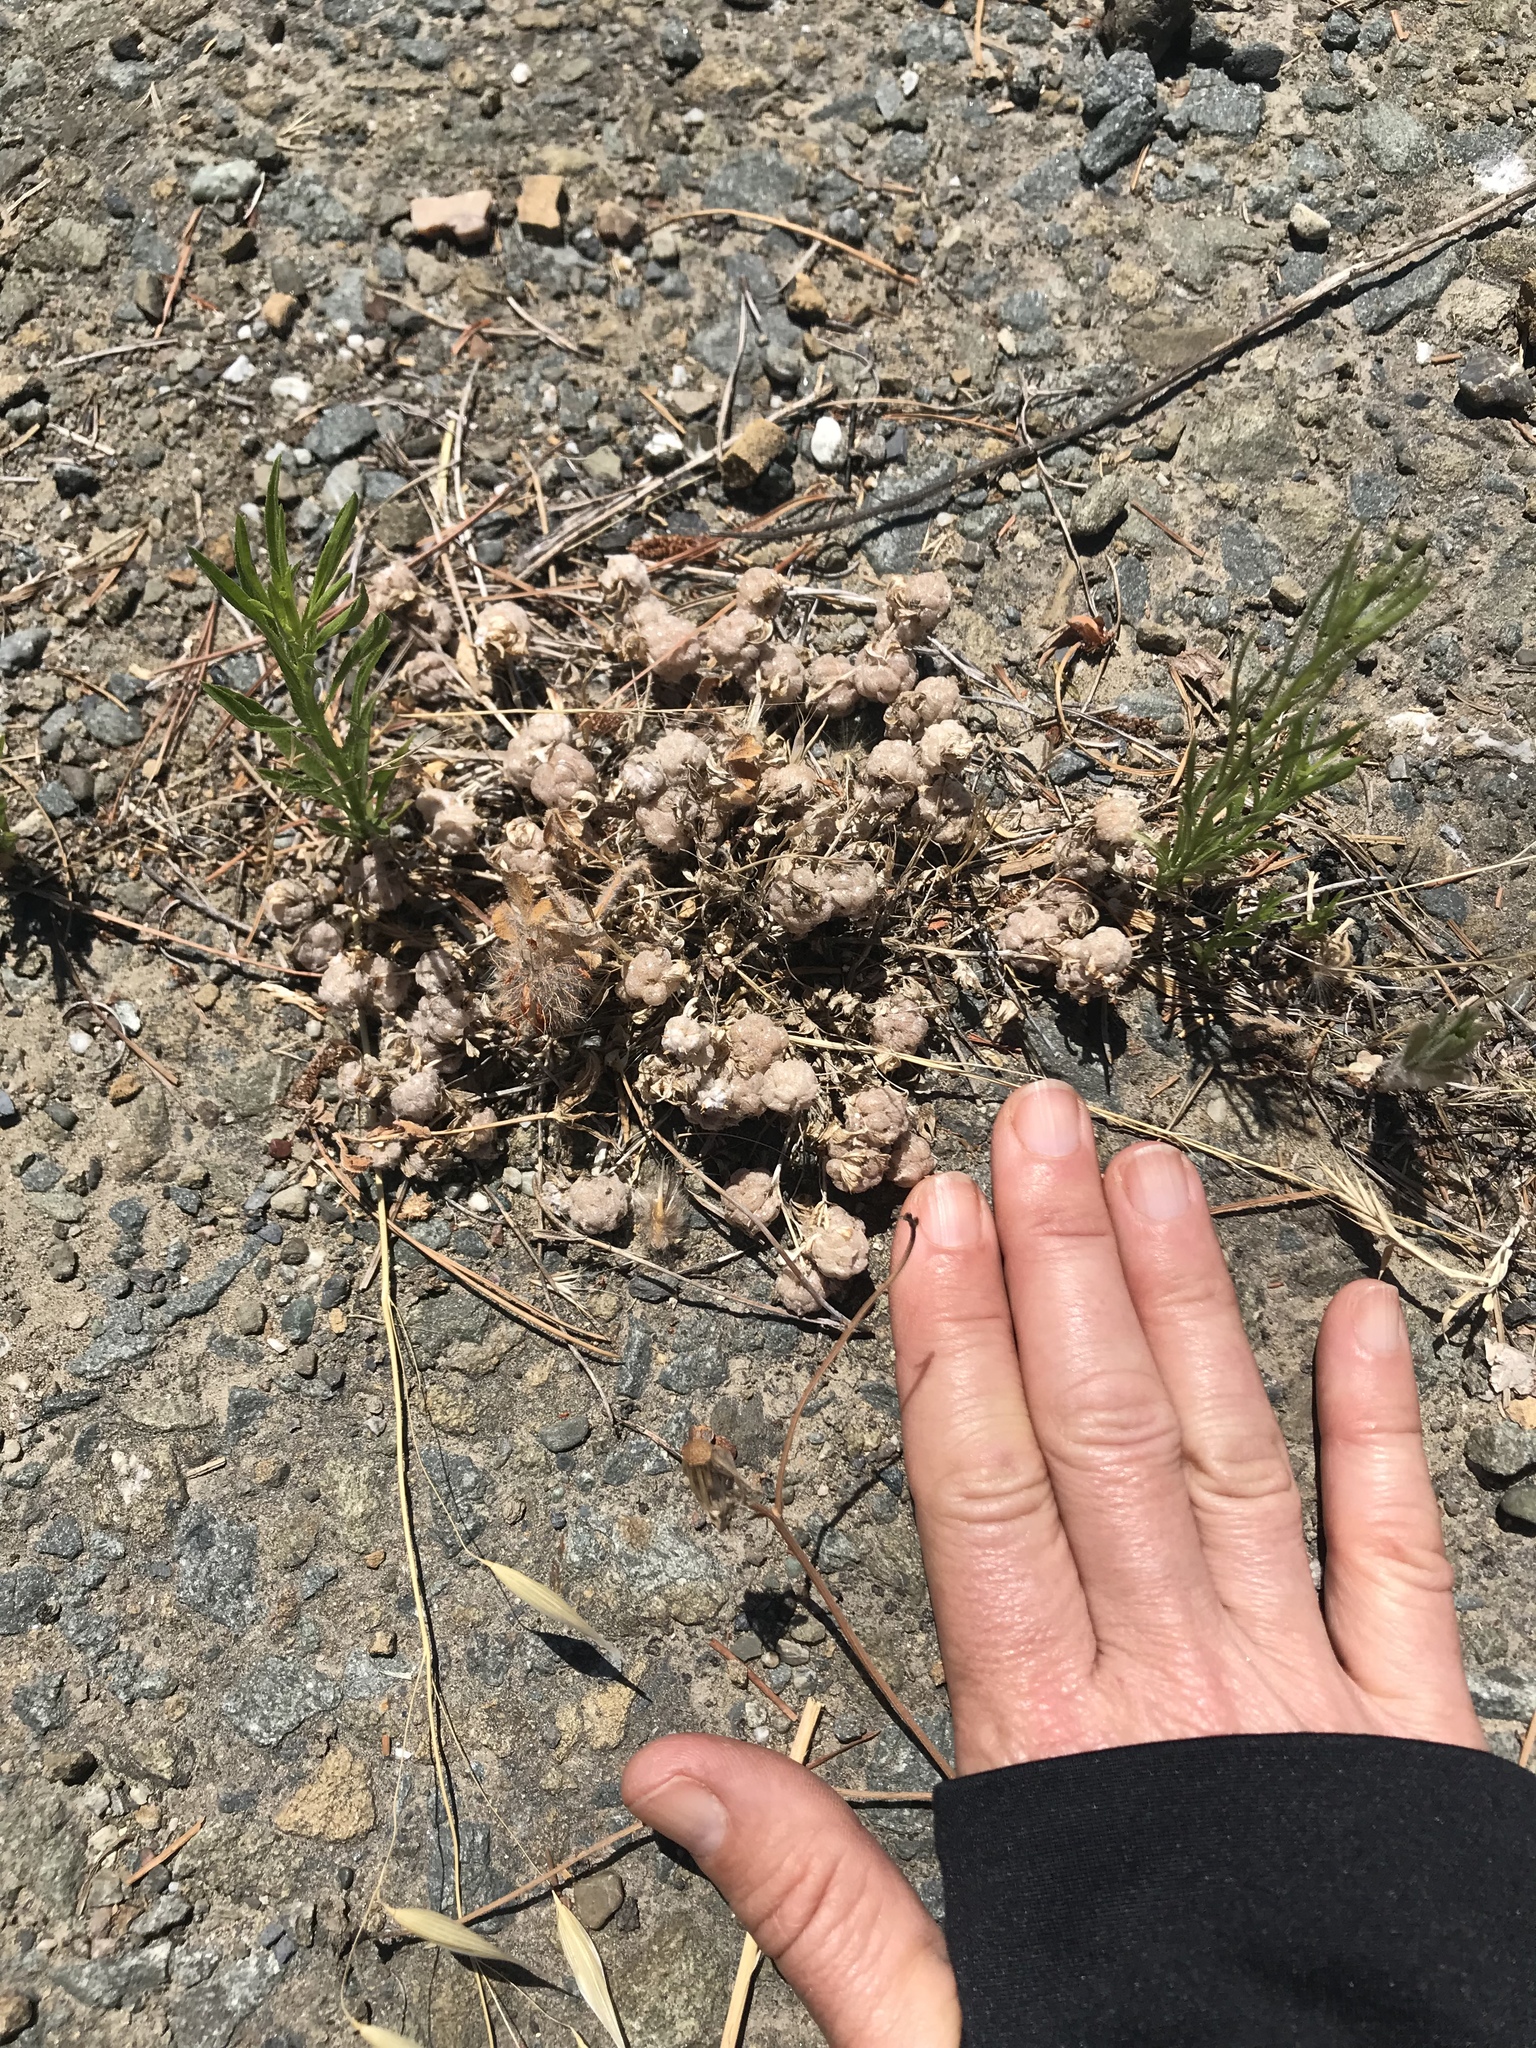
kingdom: Plantae
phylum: Tracheophyta
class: Magnoliopsida
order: Fabales
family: Fabaceae
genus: Trifolium
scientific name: Trifolium tomentosum
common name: Woolly clover
